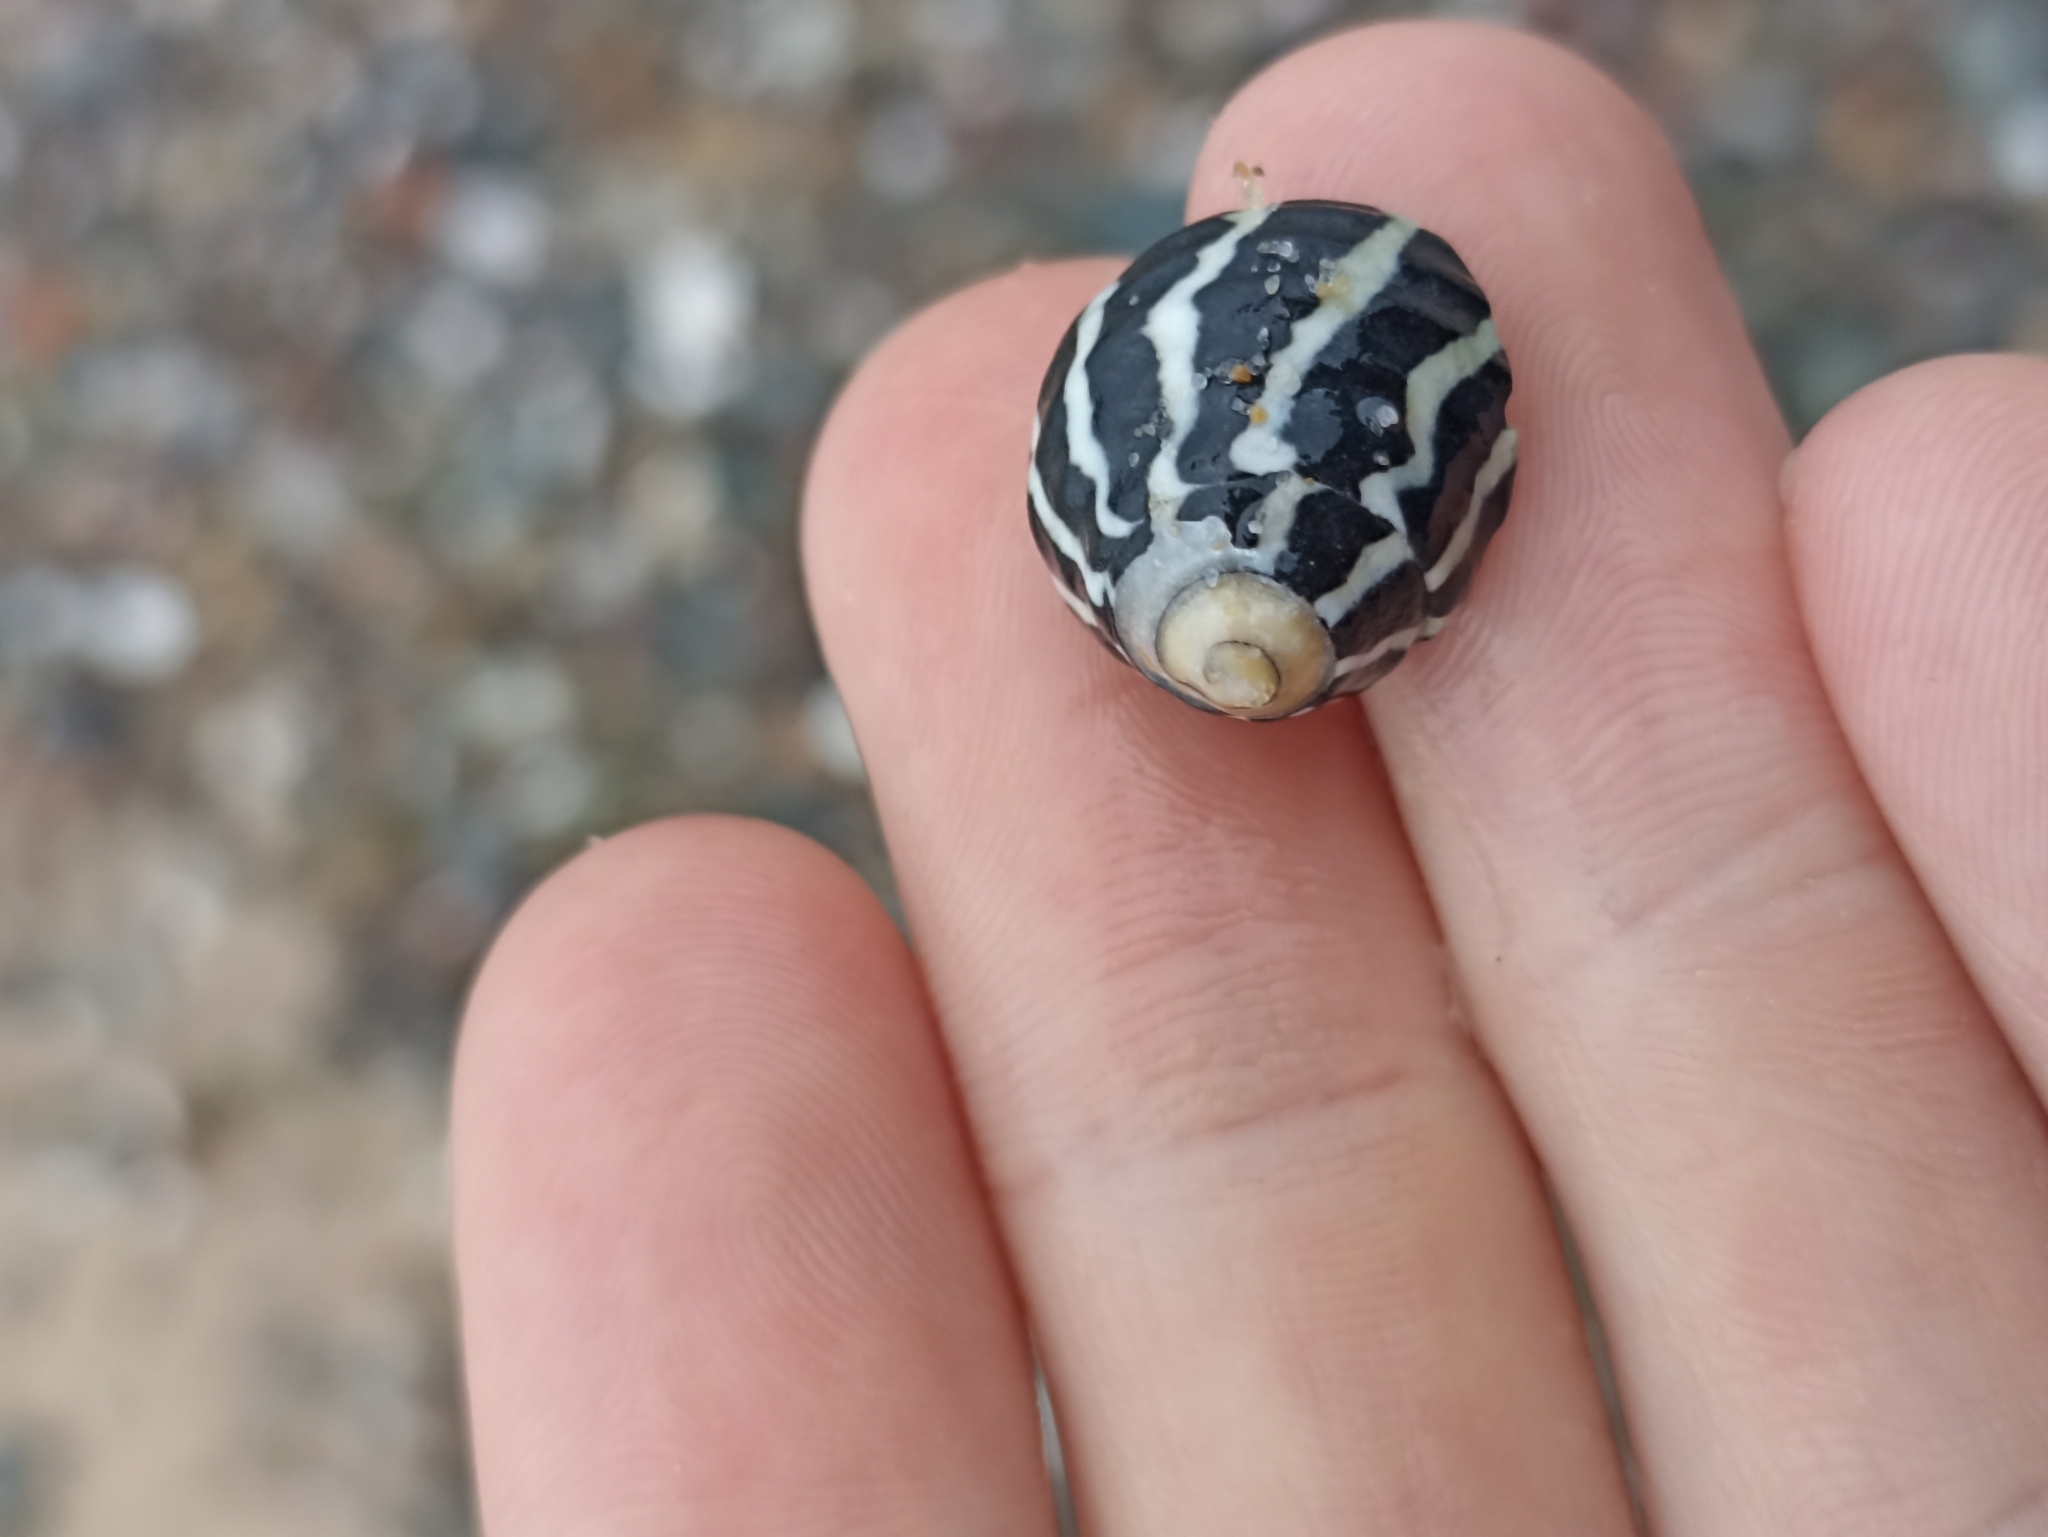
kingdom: Animalia
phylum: Mollusca
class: Gastropoda
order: Trochida
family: Trochidae
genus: Austrocochlea
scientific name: Austrocochlea porcata
